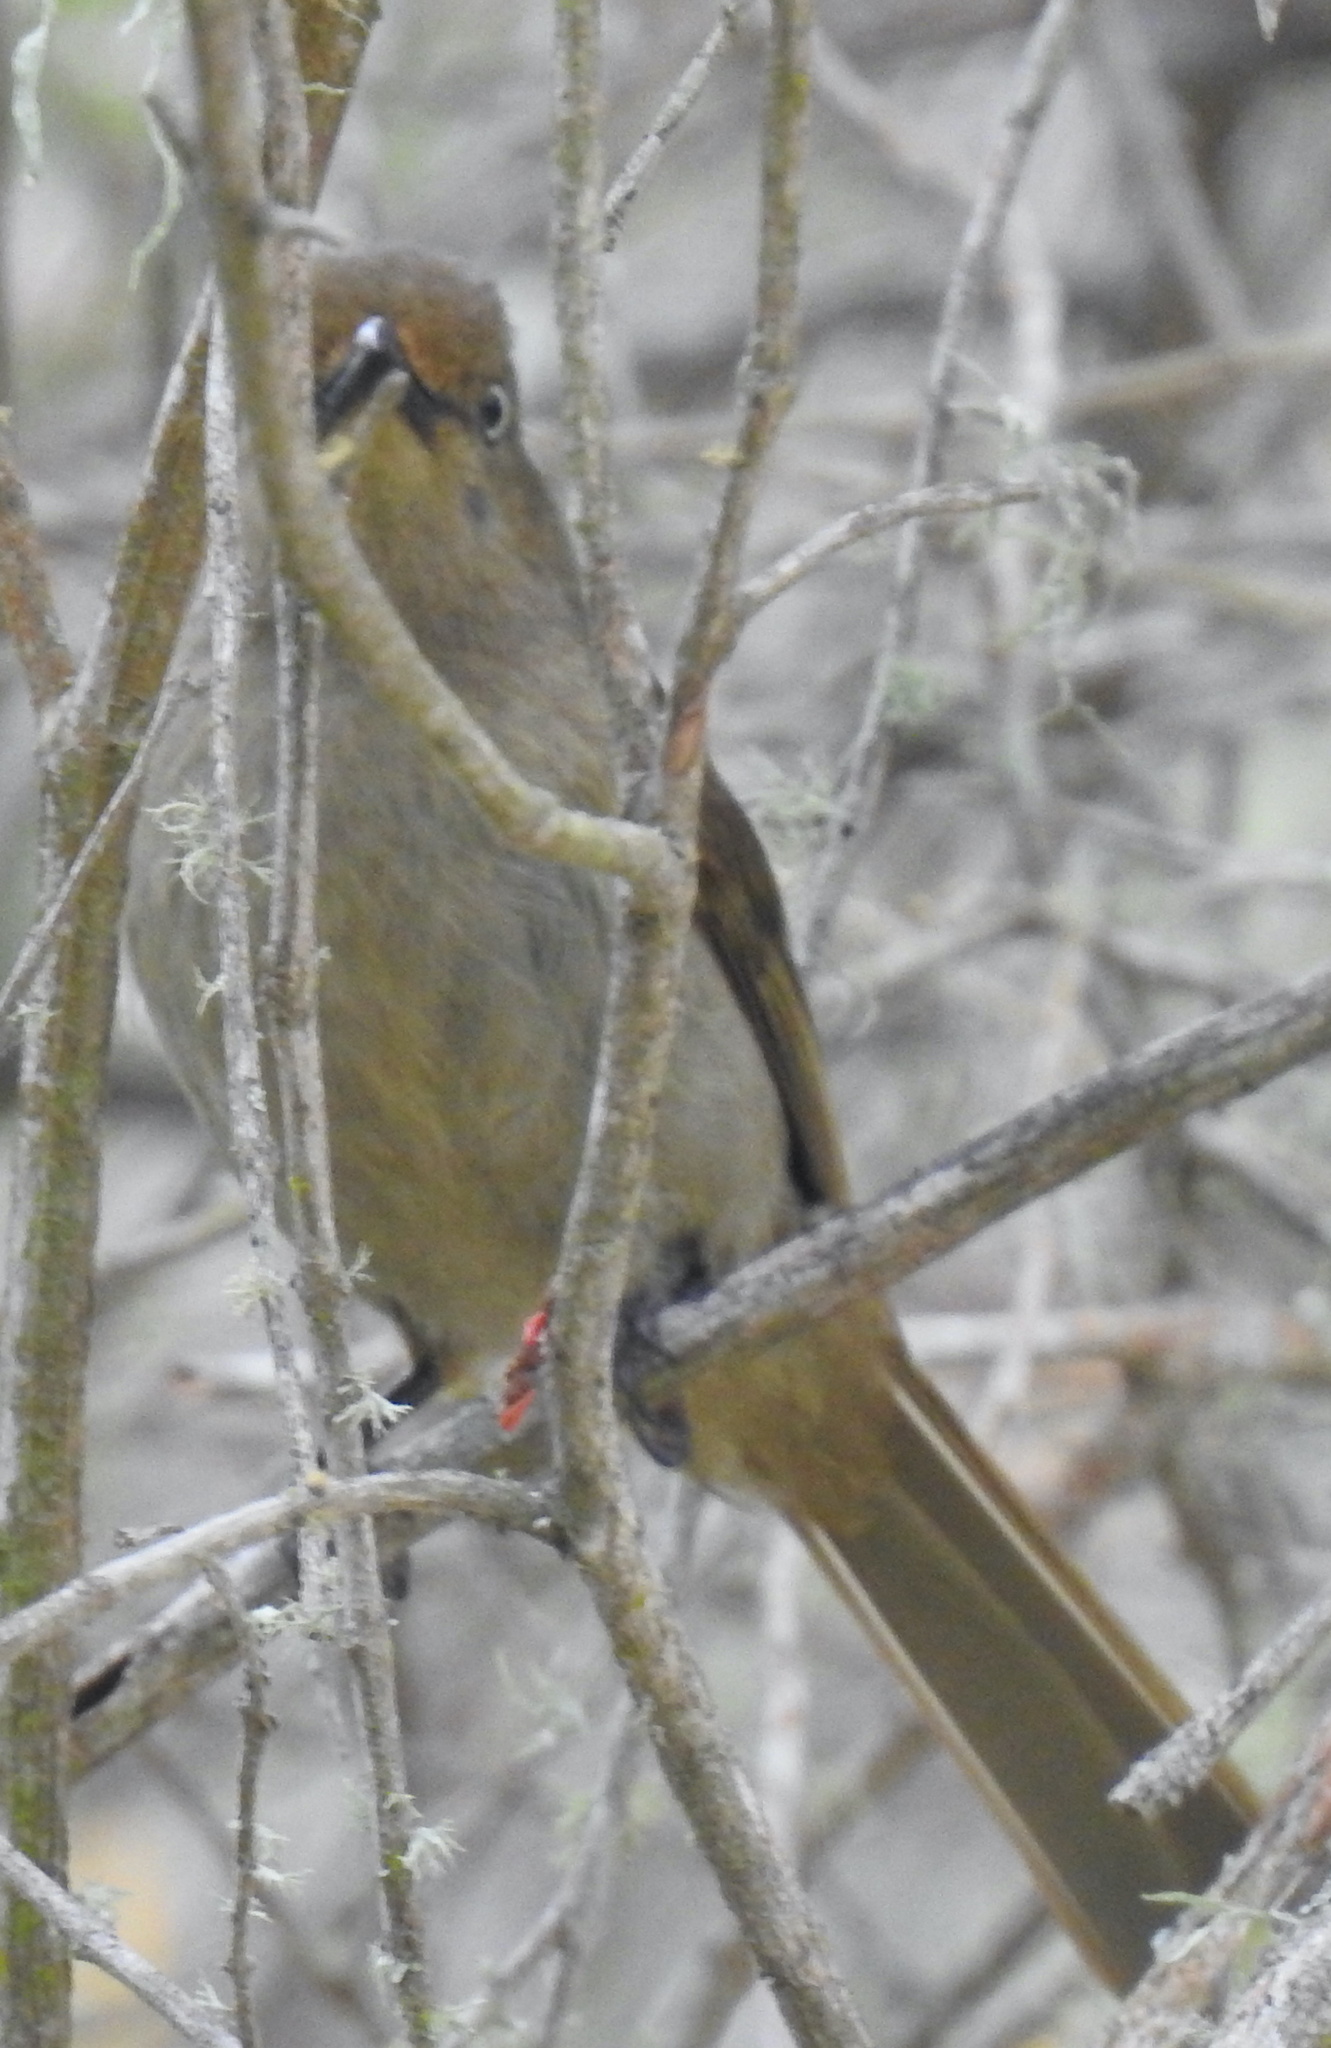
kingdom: Animalia
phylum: Chordata
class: Aves
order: Passeriformes
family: Pycnonotidae
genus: Andropadus
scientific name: Andropadus importunus
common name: Sombre greenbul
